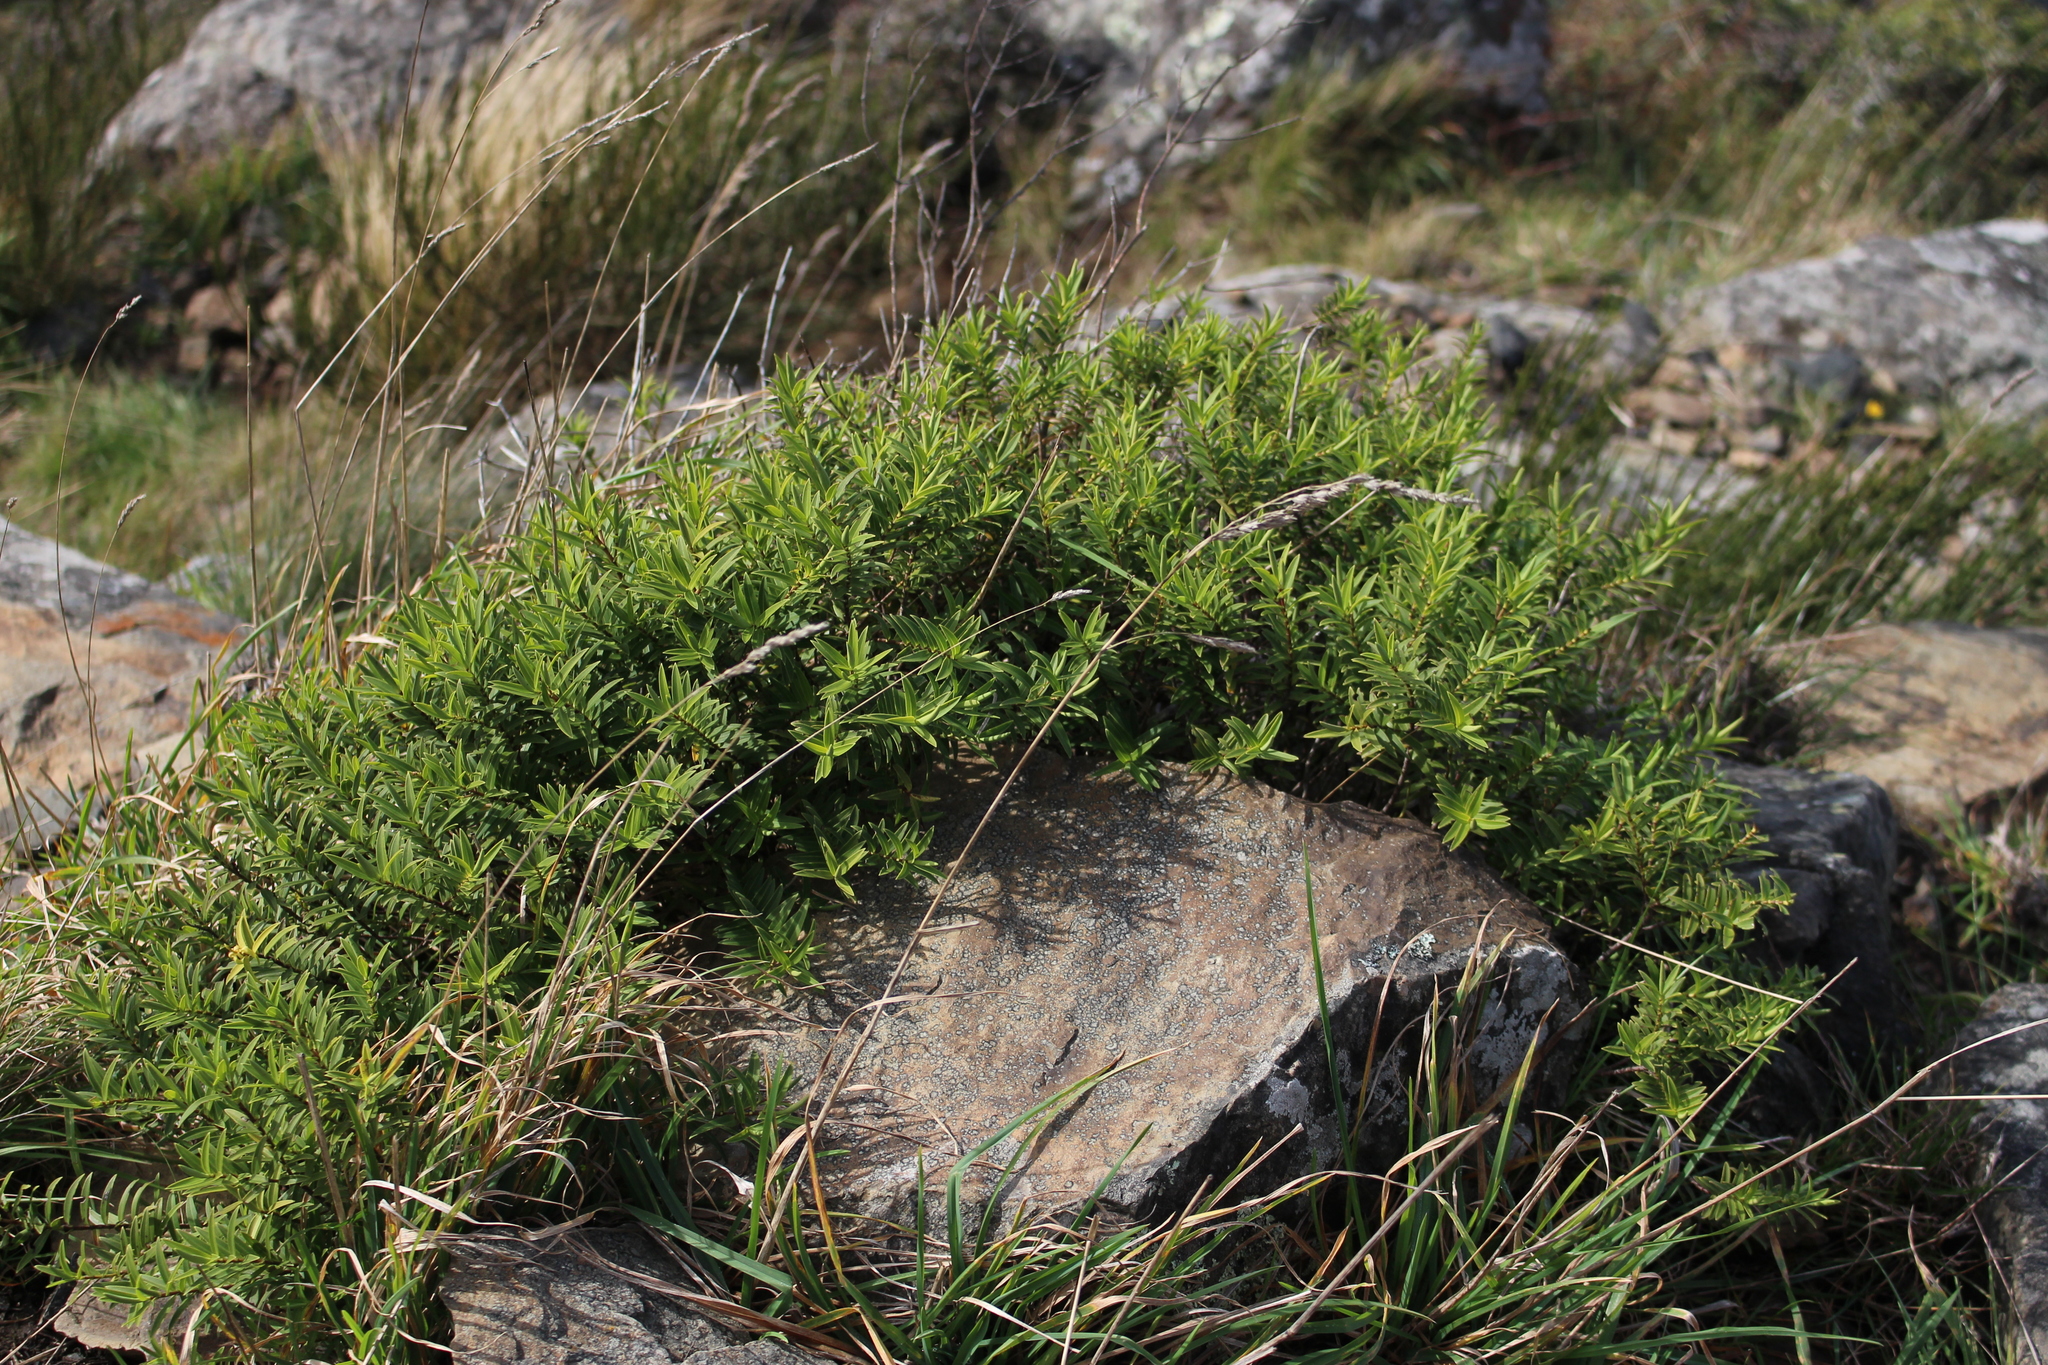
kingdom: Plantae
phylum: Tracheophyta
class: Magnoliopsida
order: Lamiales
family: Plantaginaceae
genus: Veronica
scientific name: Veronica strictissima
